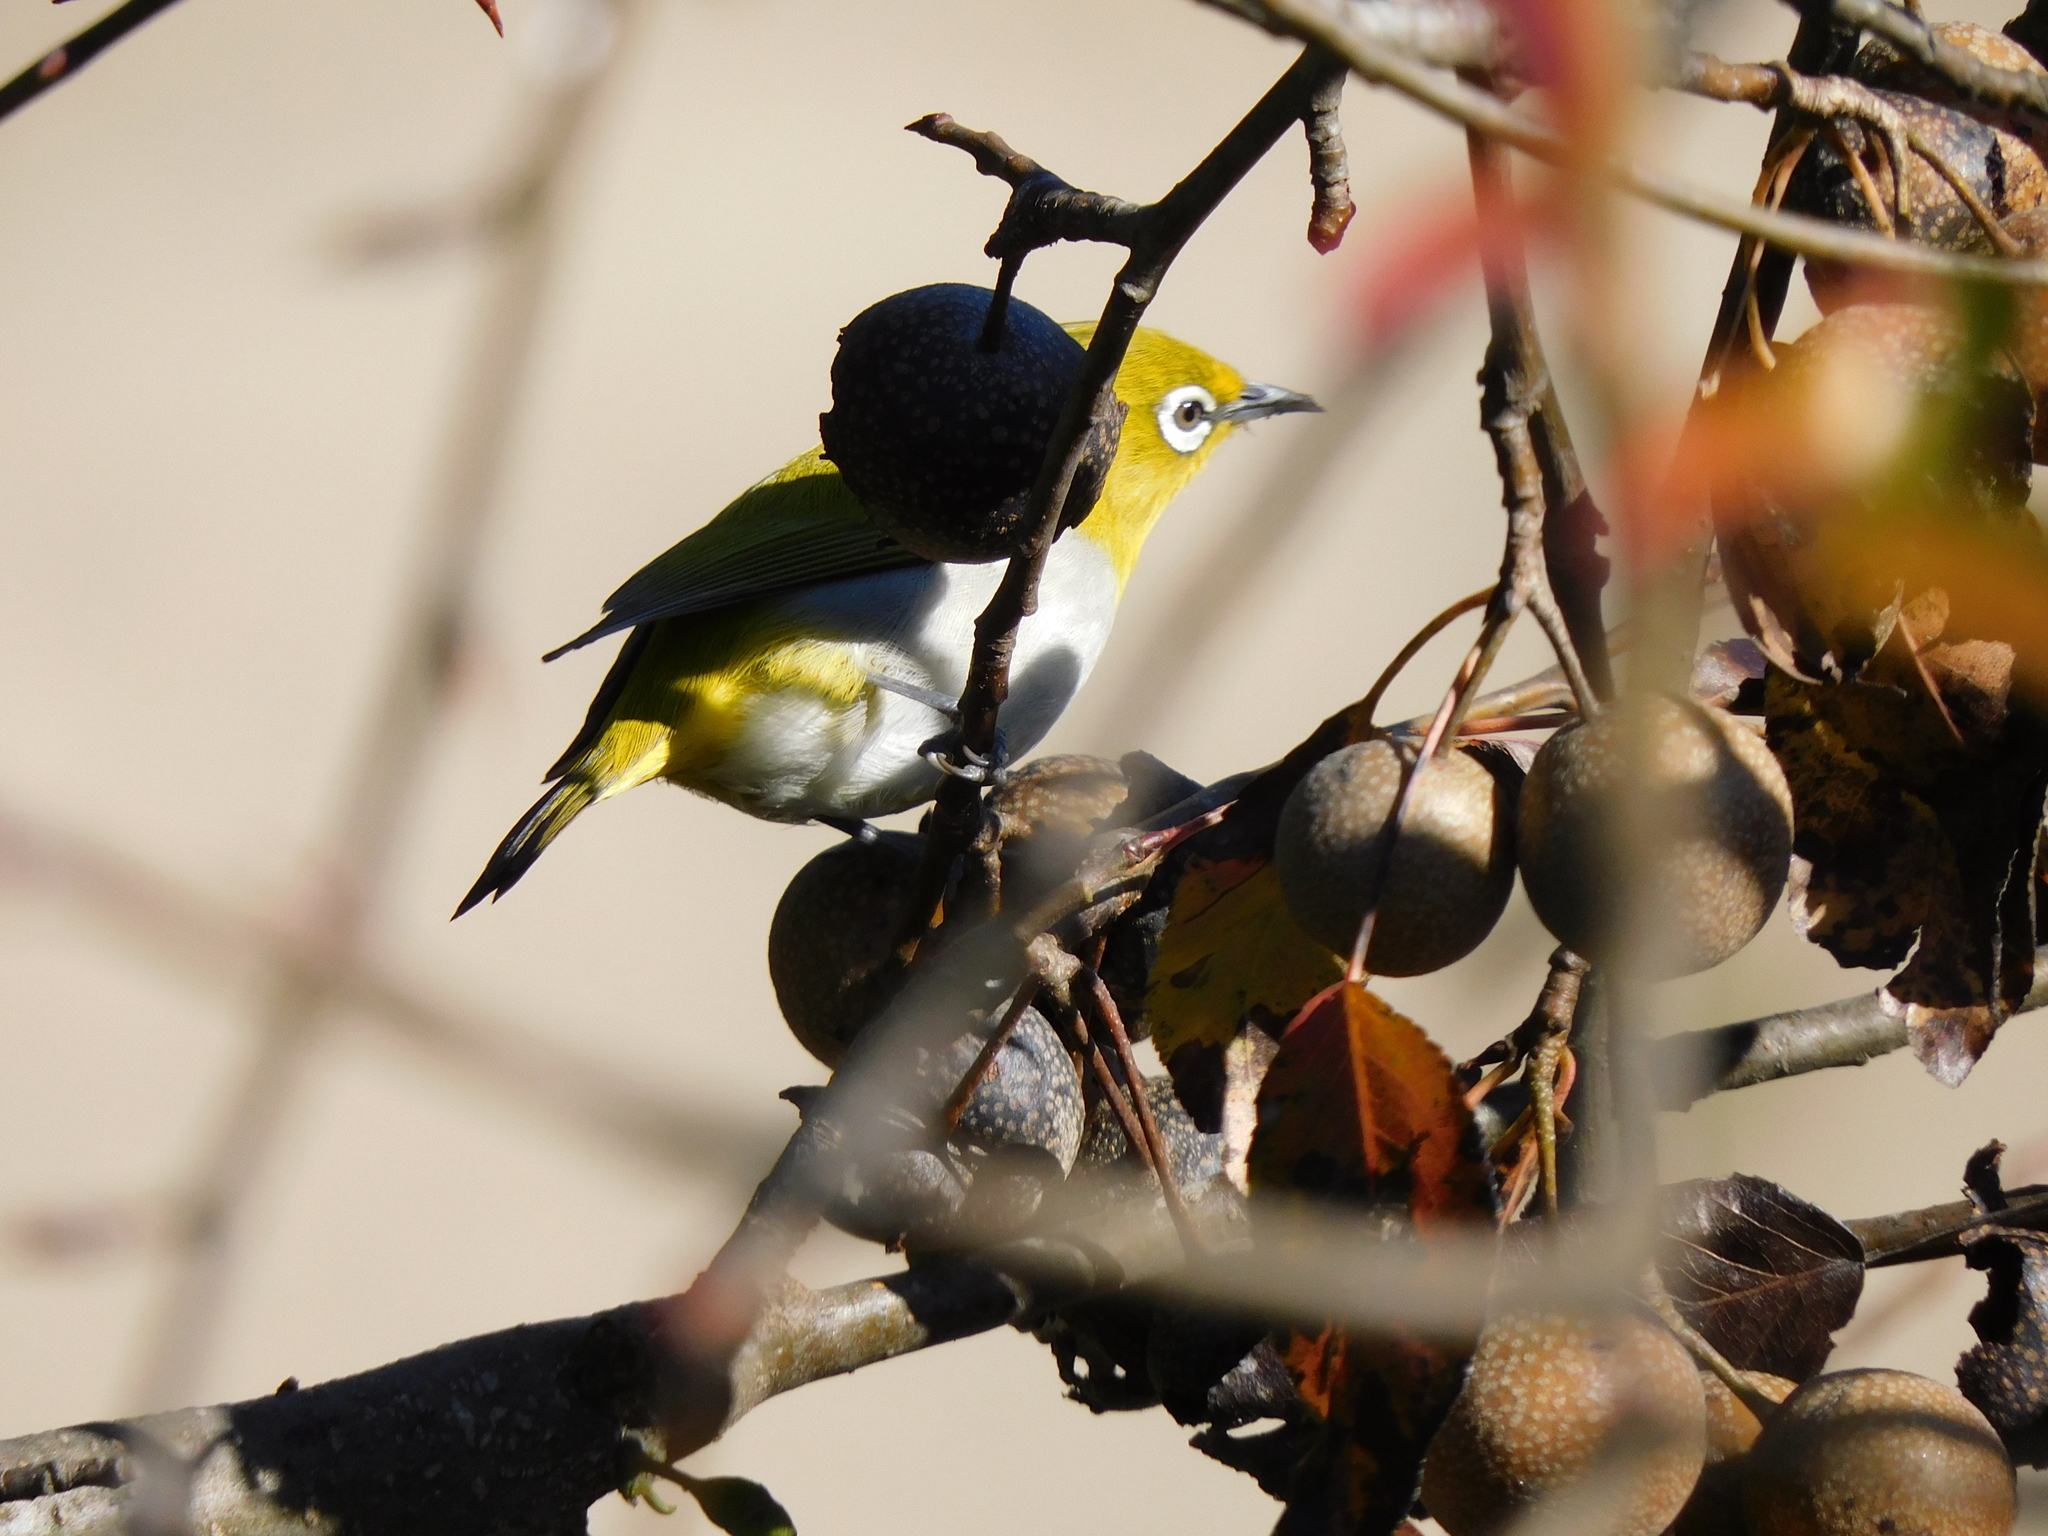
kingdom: Animalia
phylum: Chordata
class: Aves
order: Passeriformes
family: Zosteropidae
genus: Zosterops
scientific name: Zosterops palpebrosus
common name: Oriental white-eye
